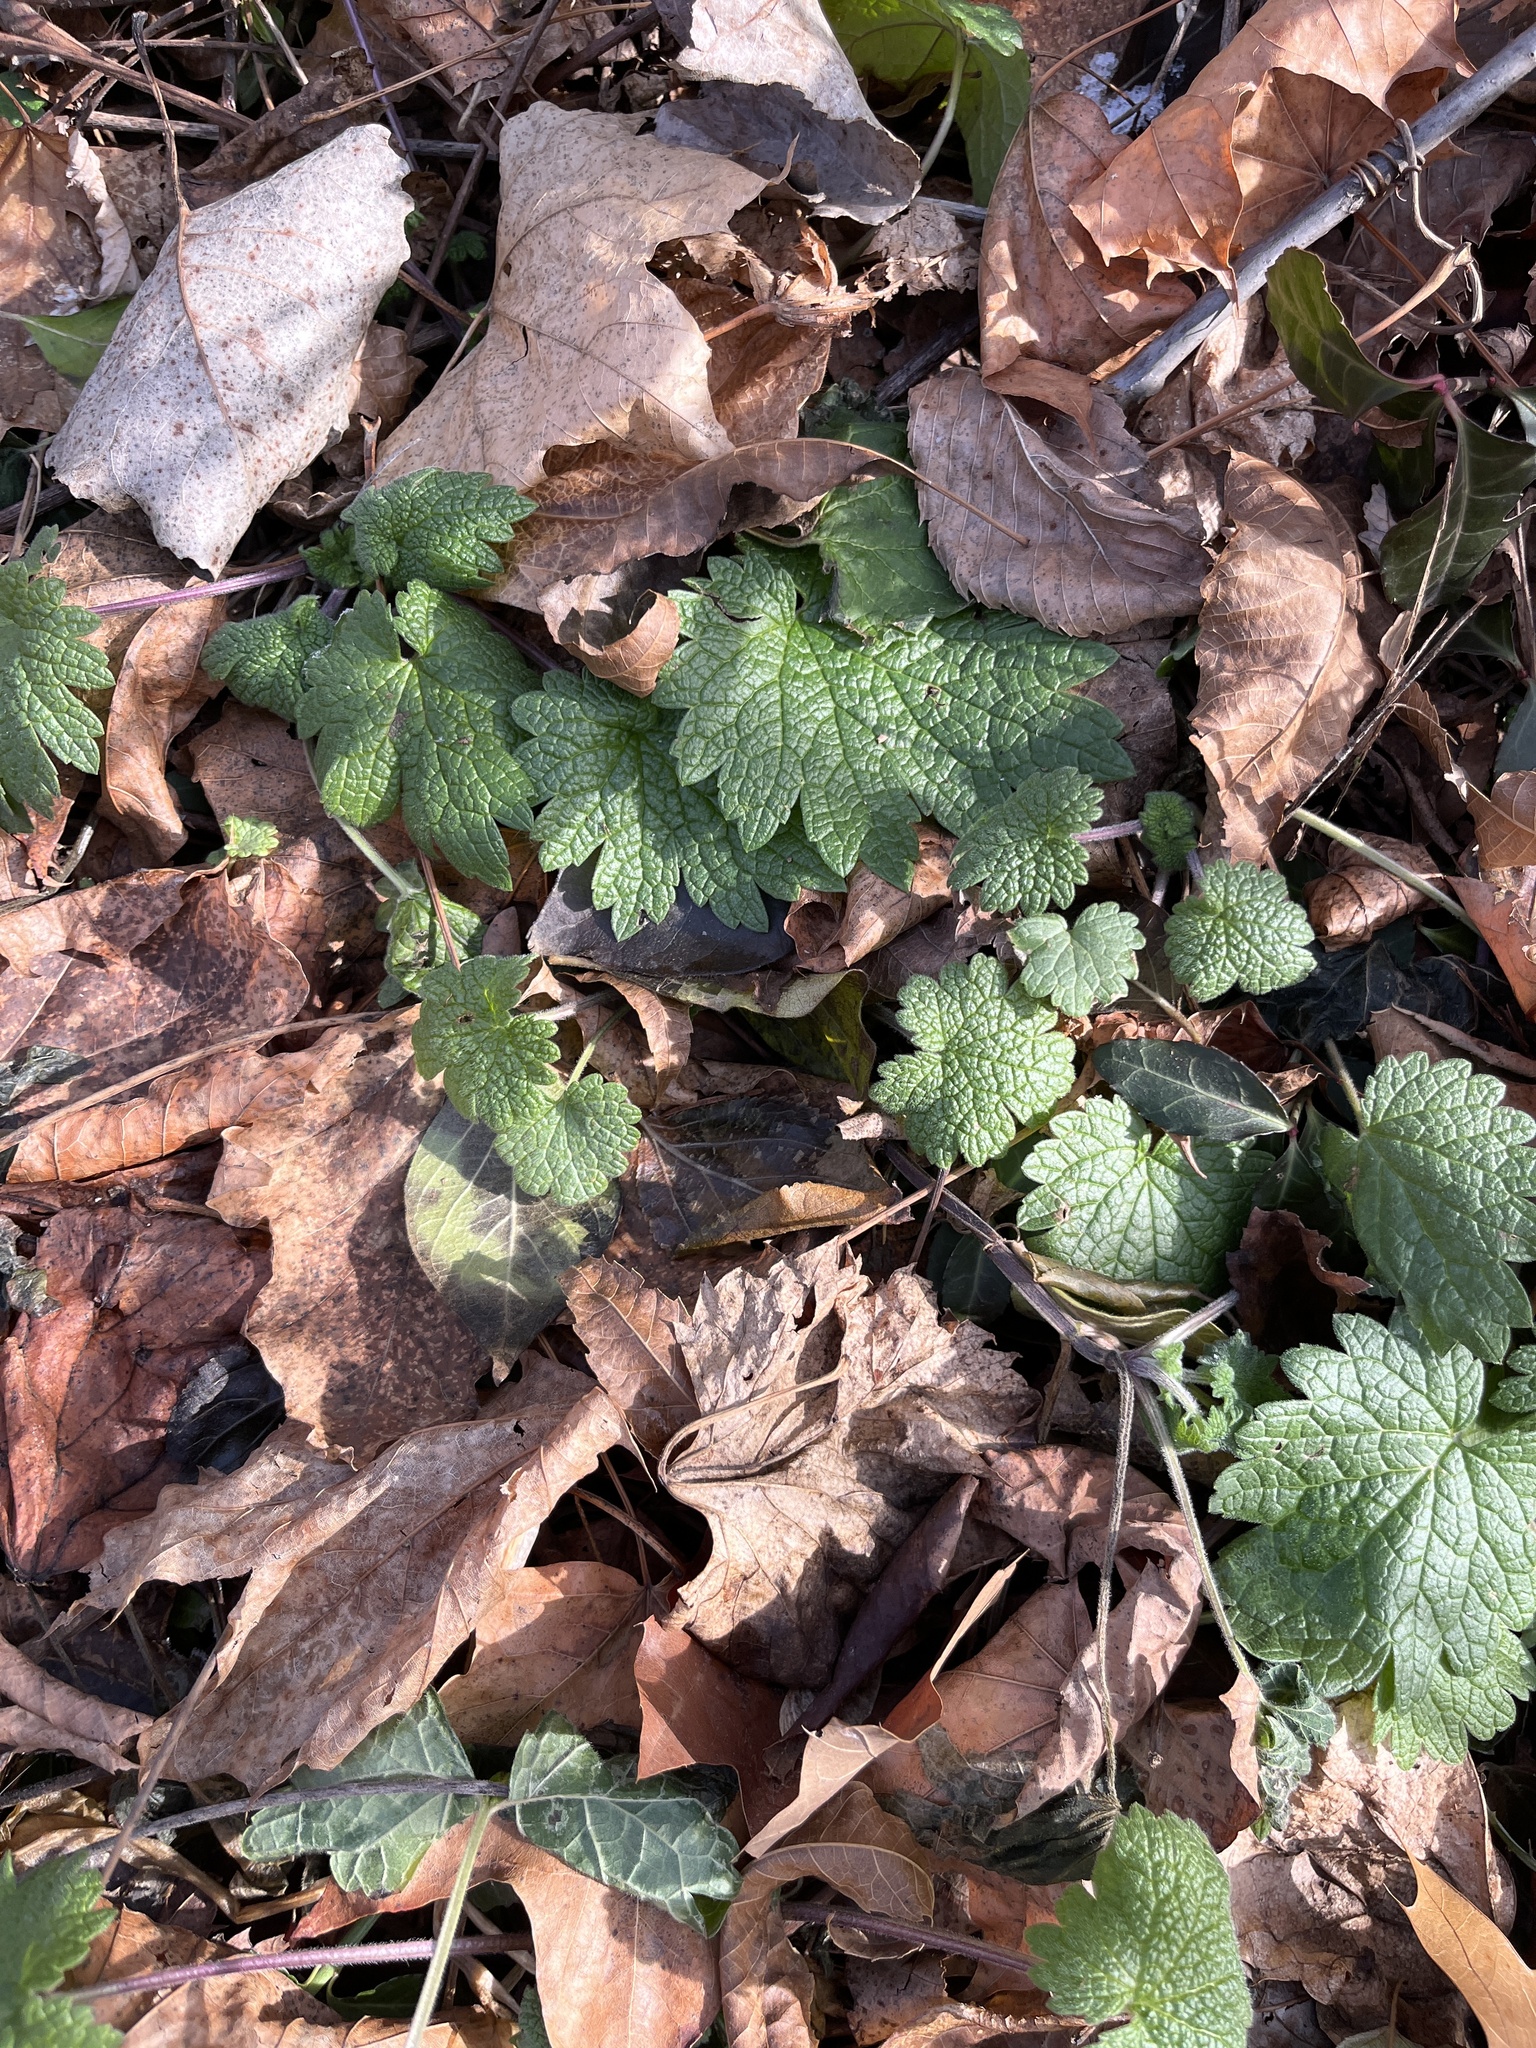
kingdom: Plantae
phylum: Tracheophyta
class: Magnoliopsida
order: Lamiales
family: Lamiaceae
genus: Leonurus
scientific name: Leonurus cardiaca
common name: Motherwort
